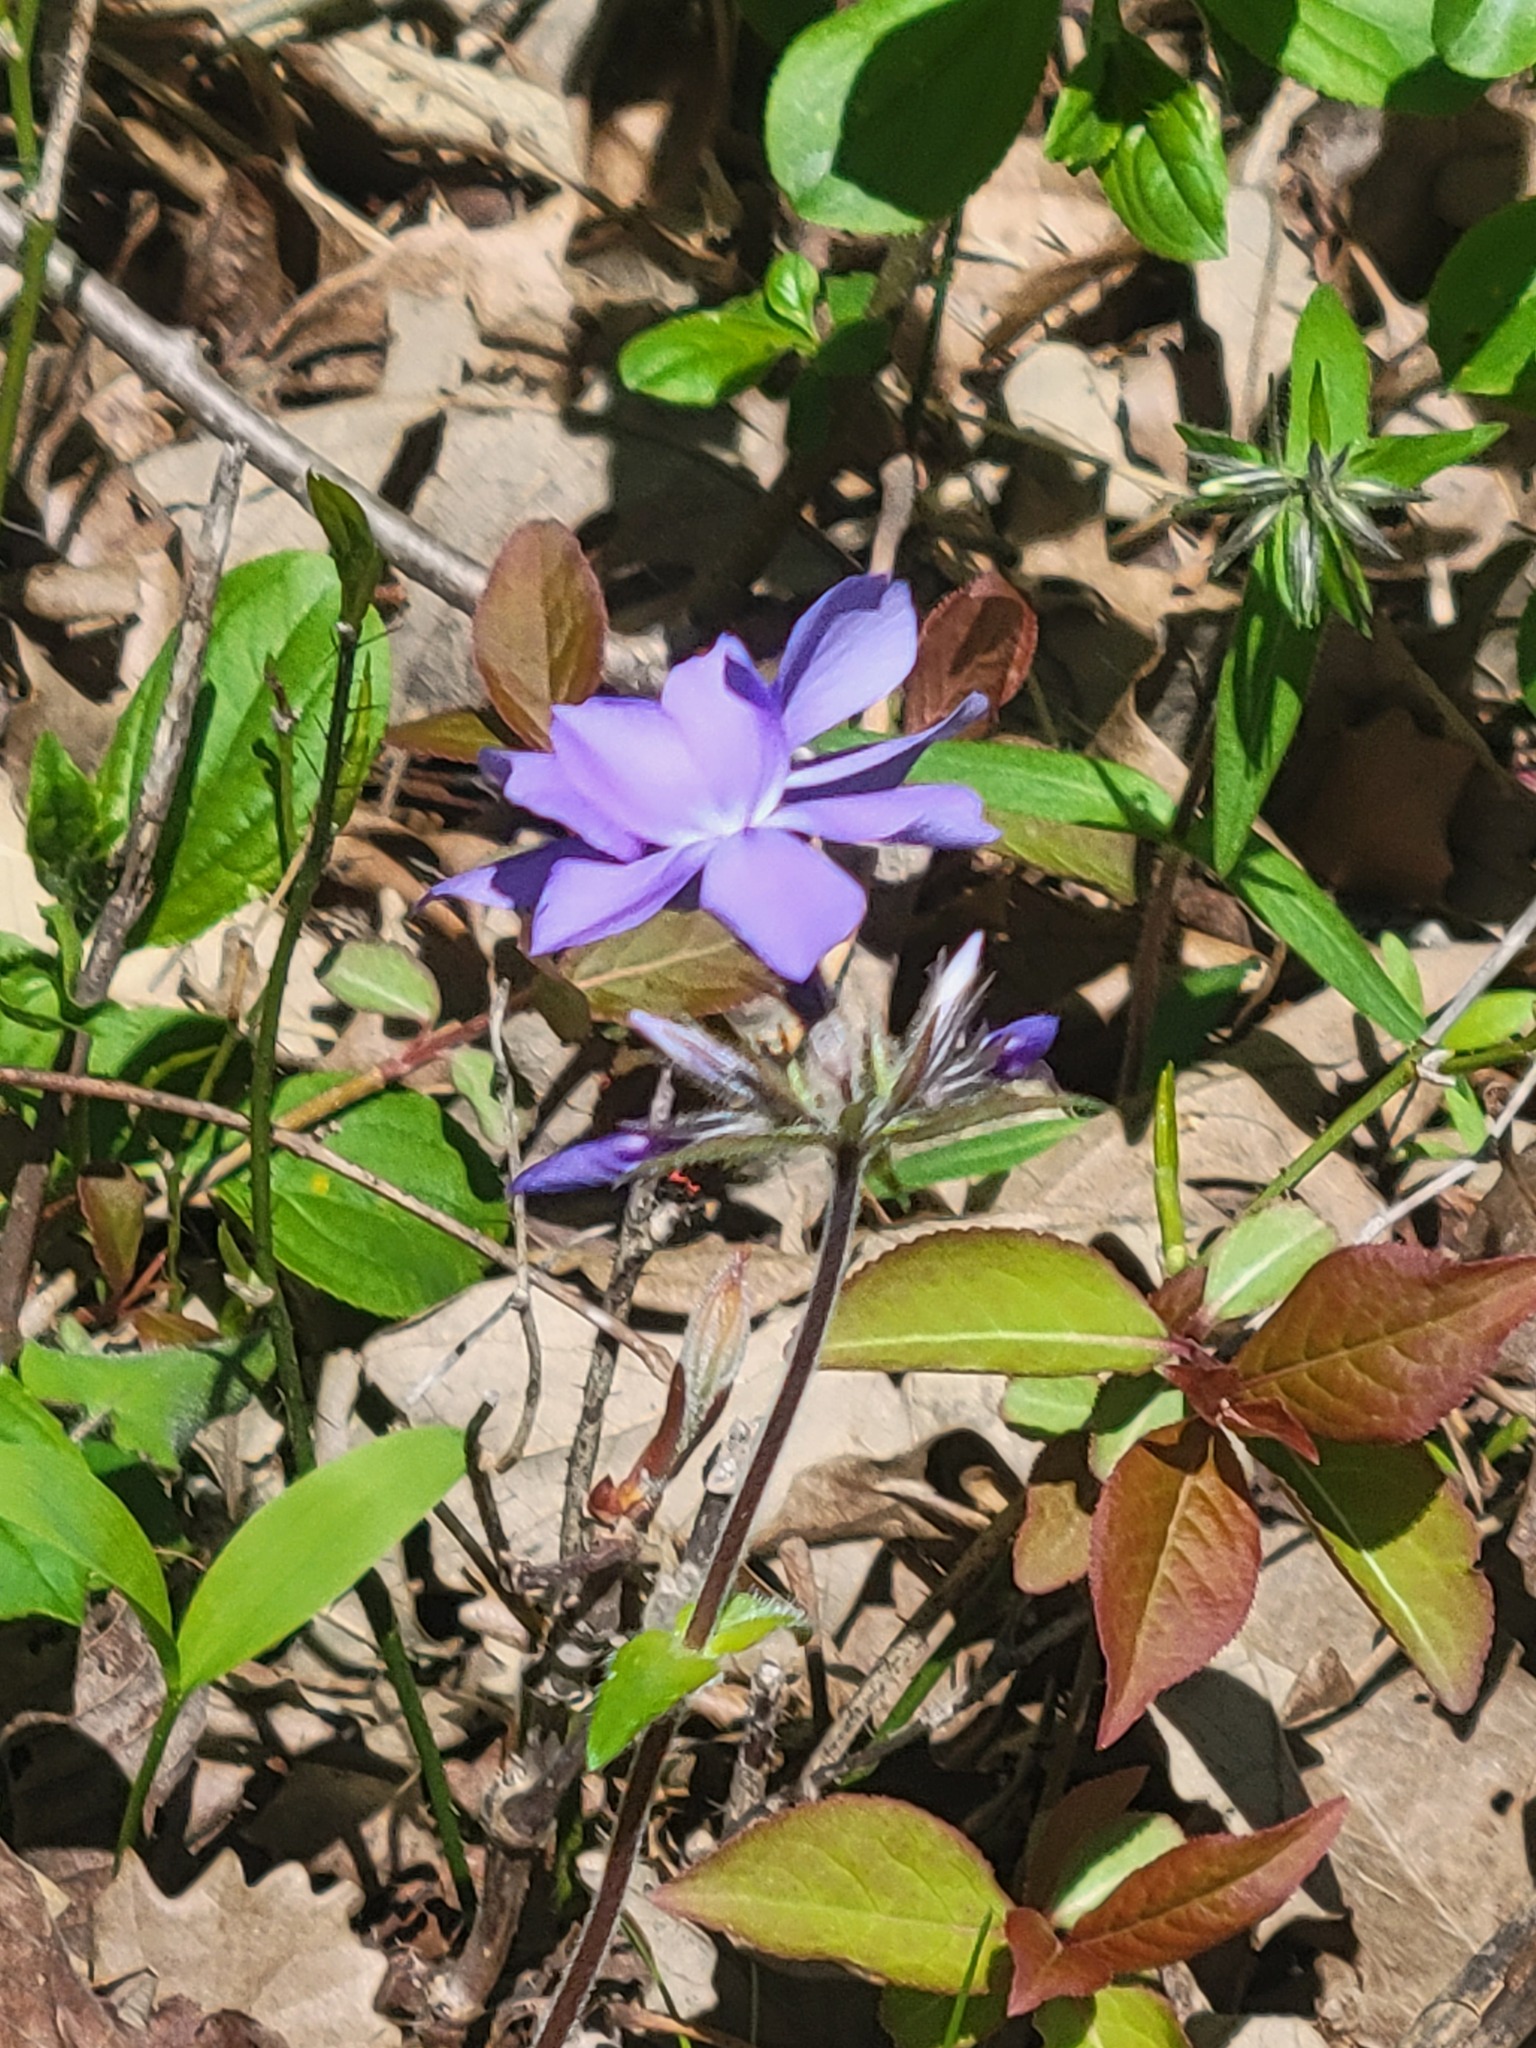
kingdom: Plantae
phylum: Tracheophyta
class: Magnoliopsida
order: Ericales
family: Polemoniaceae
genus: Phlox
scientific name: Phlox divaricata
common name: Blue phlox
